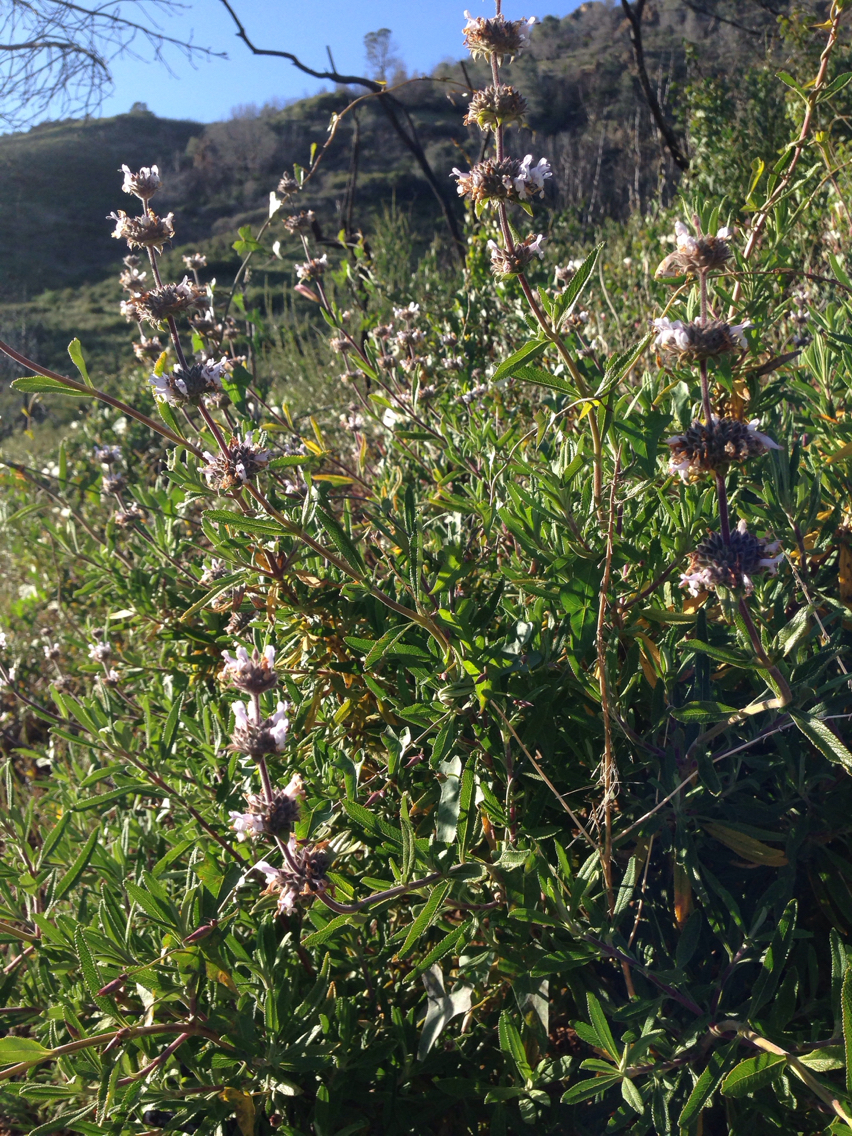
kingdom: Plantae
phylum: Tracheophyta
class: Magnoliopsida
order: Lamiales
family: Lamiaceae
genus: Salvia
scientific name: Salvia mellifera
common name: Black sage
